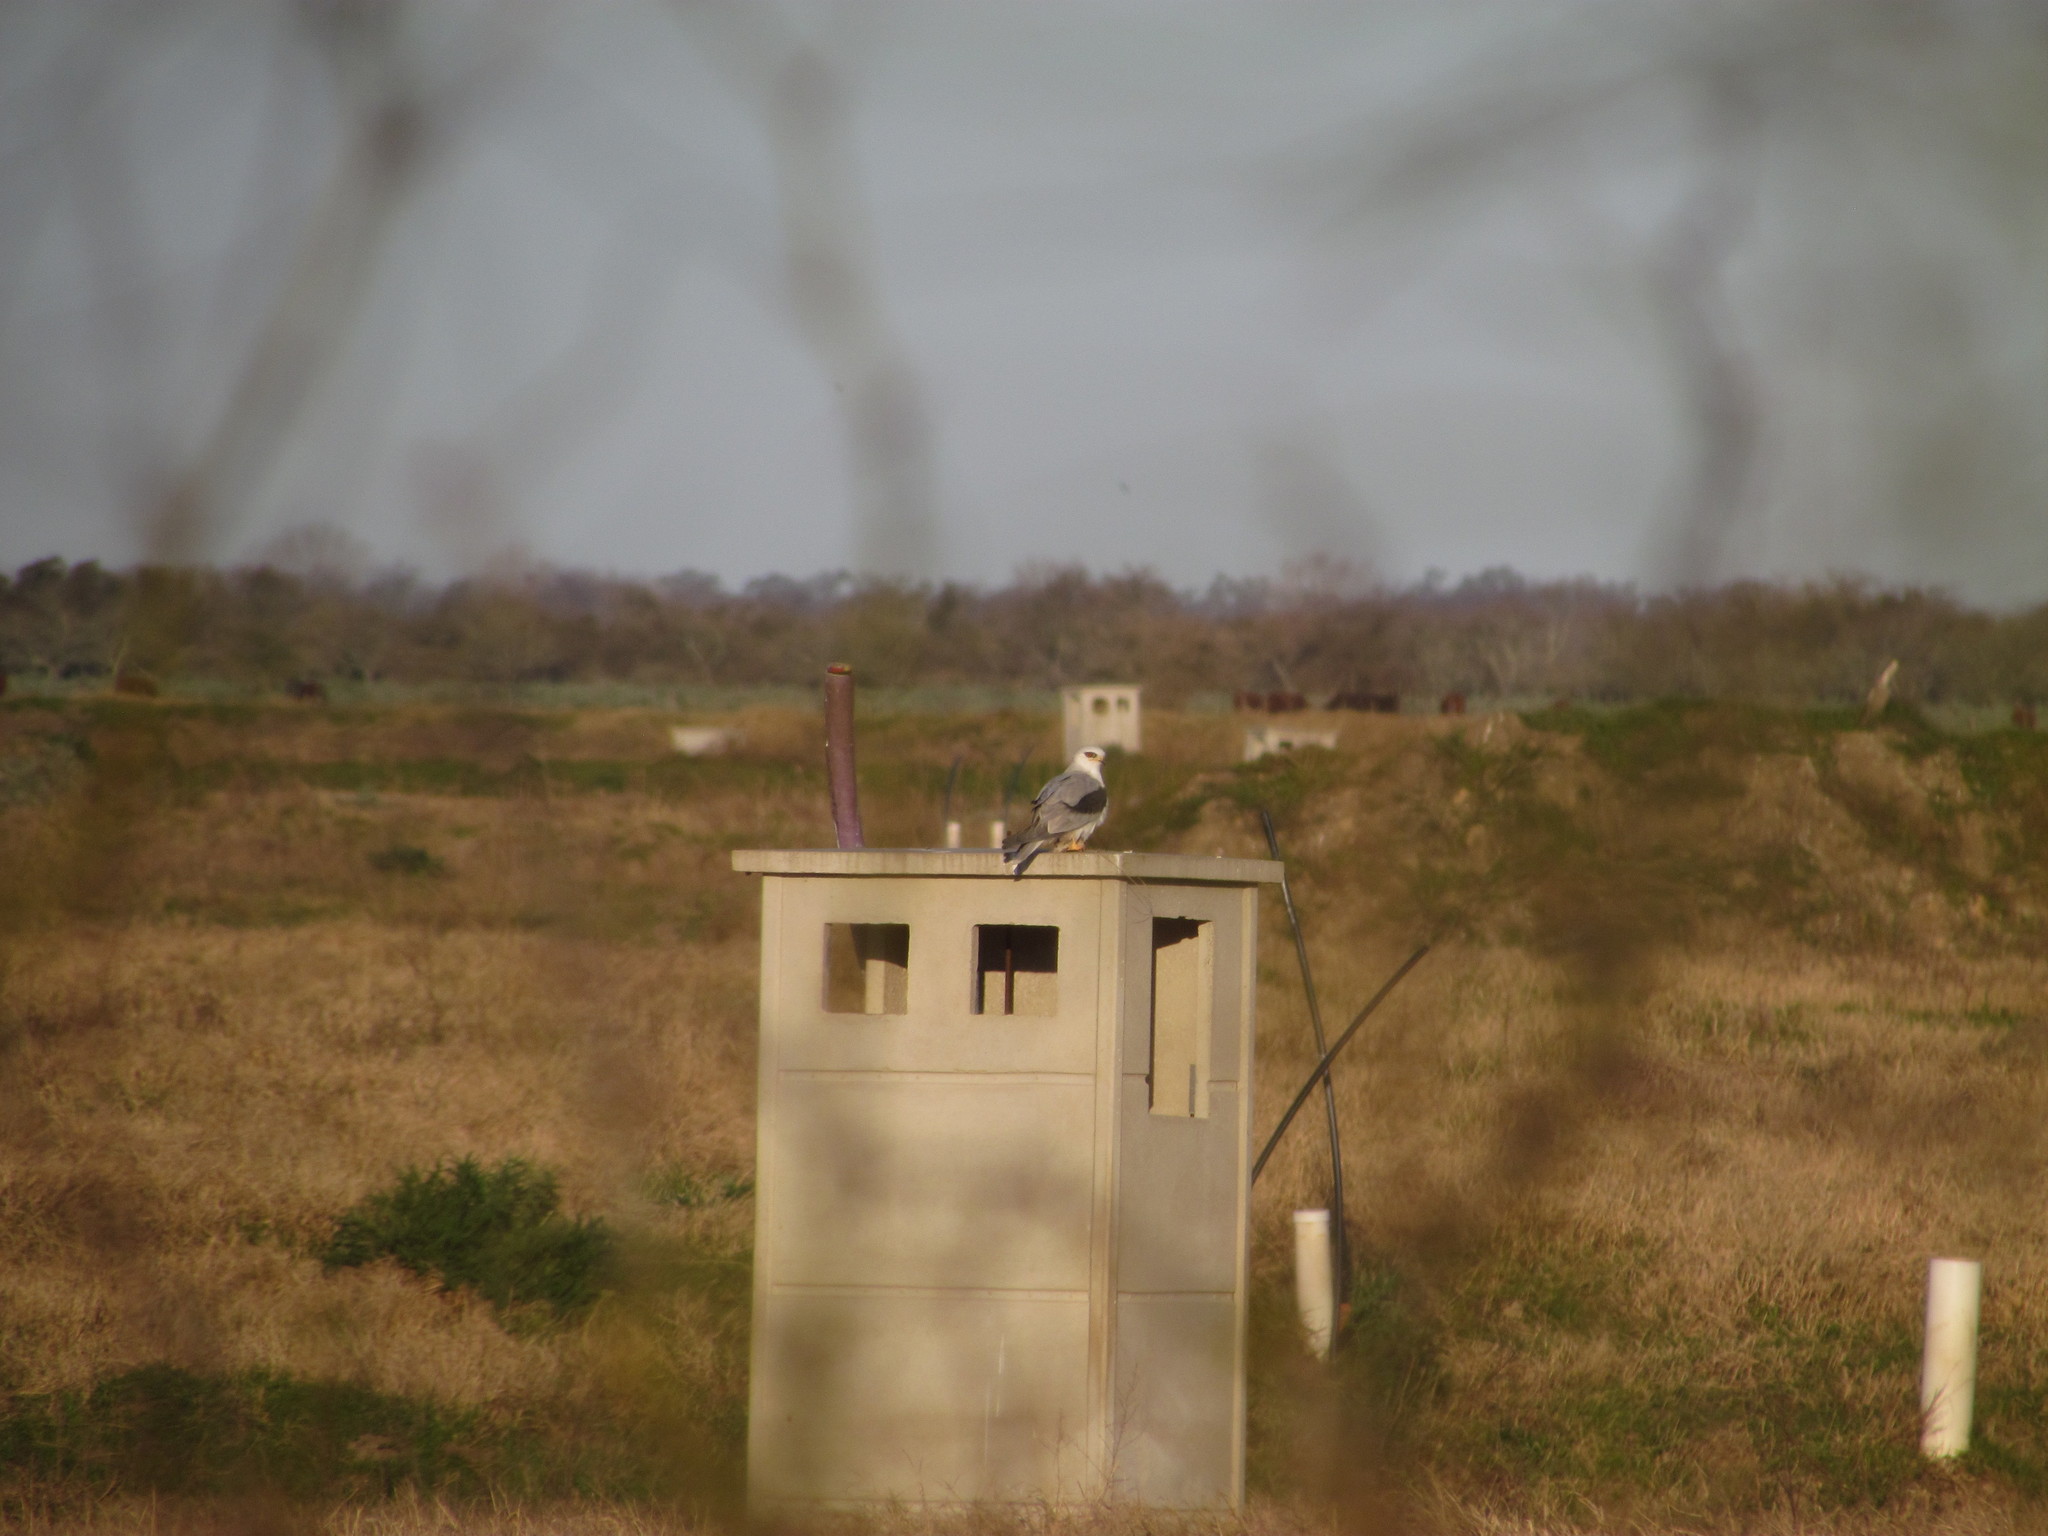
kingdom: Animalia
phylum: Chordata
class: Aves
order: Accipitriformes
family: Accipitridae
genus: Elanus
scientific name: Elanus leucurus
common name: White-tailed kite
